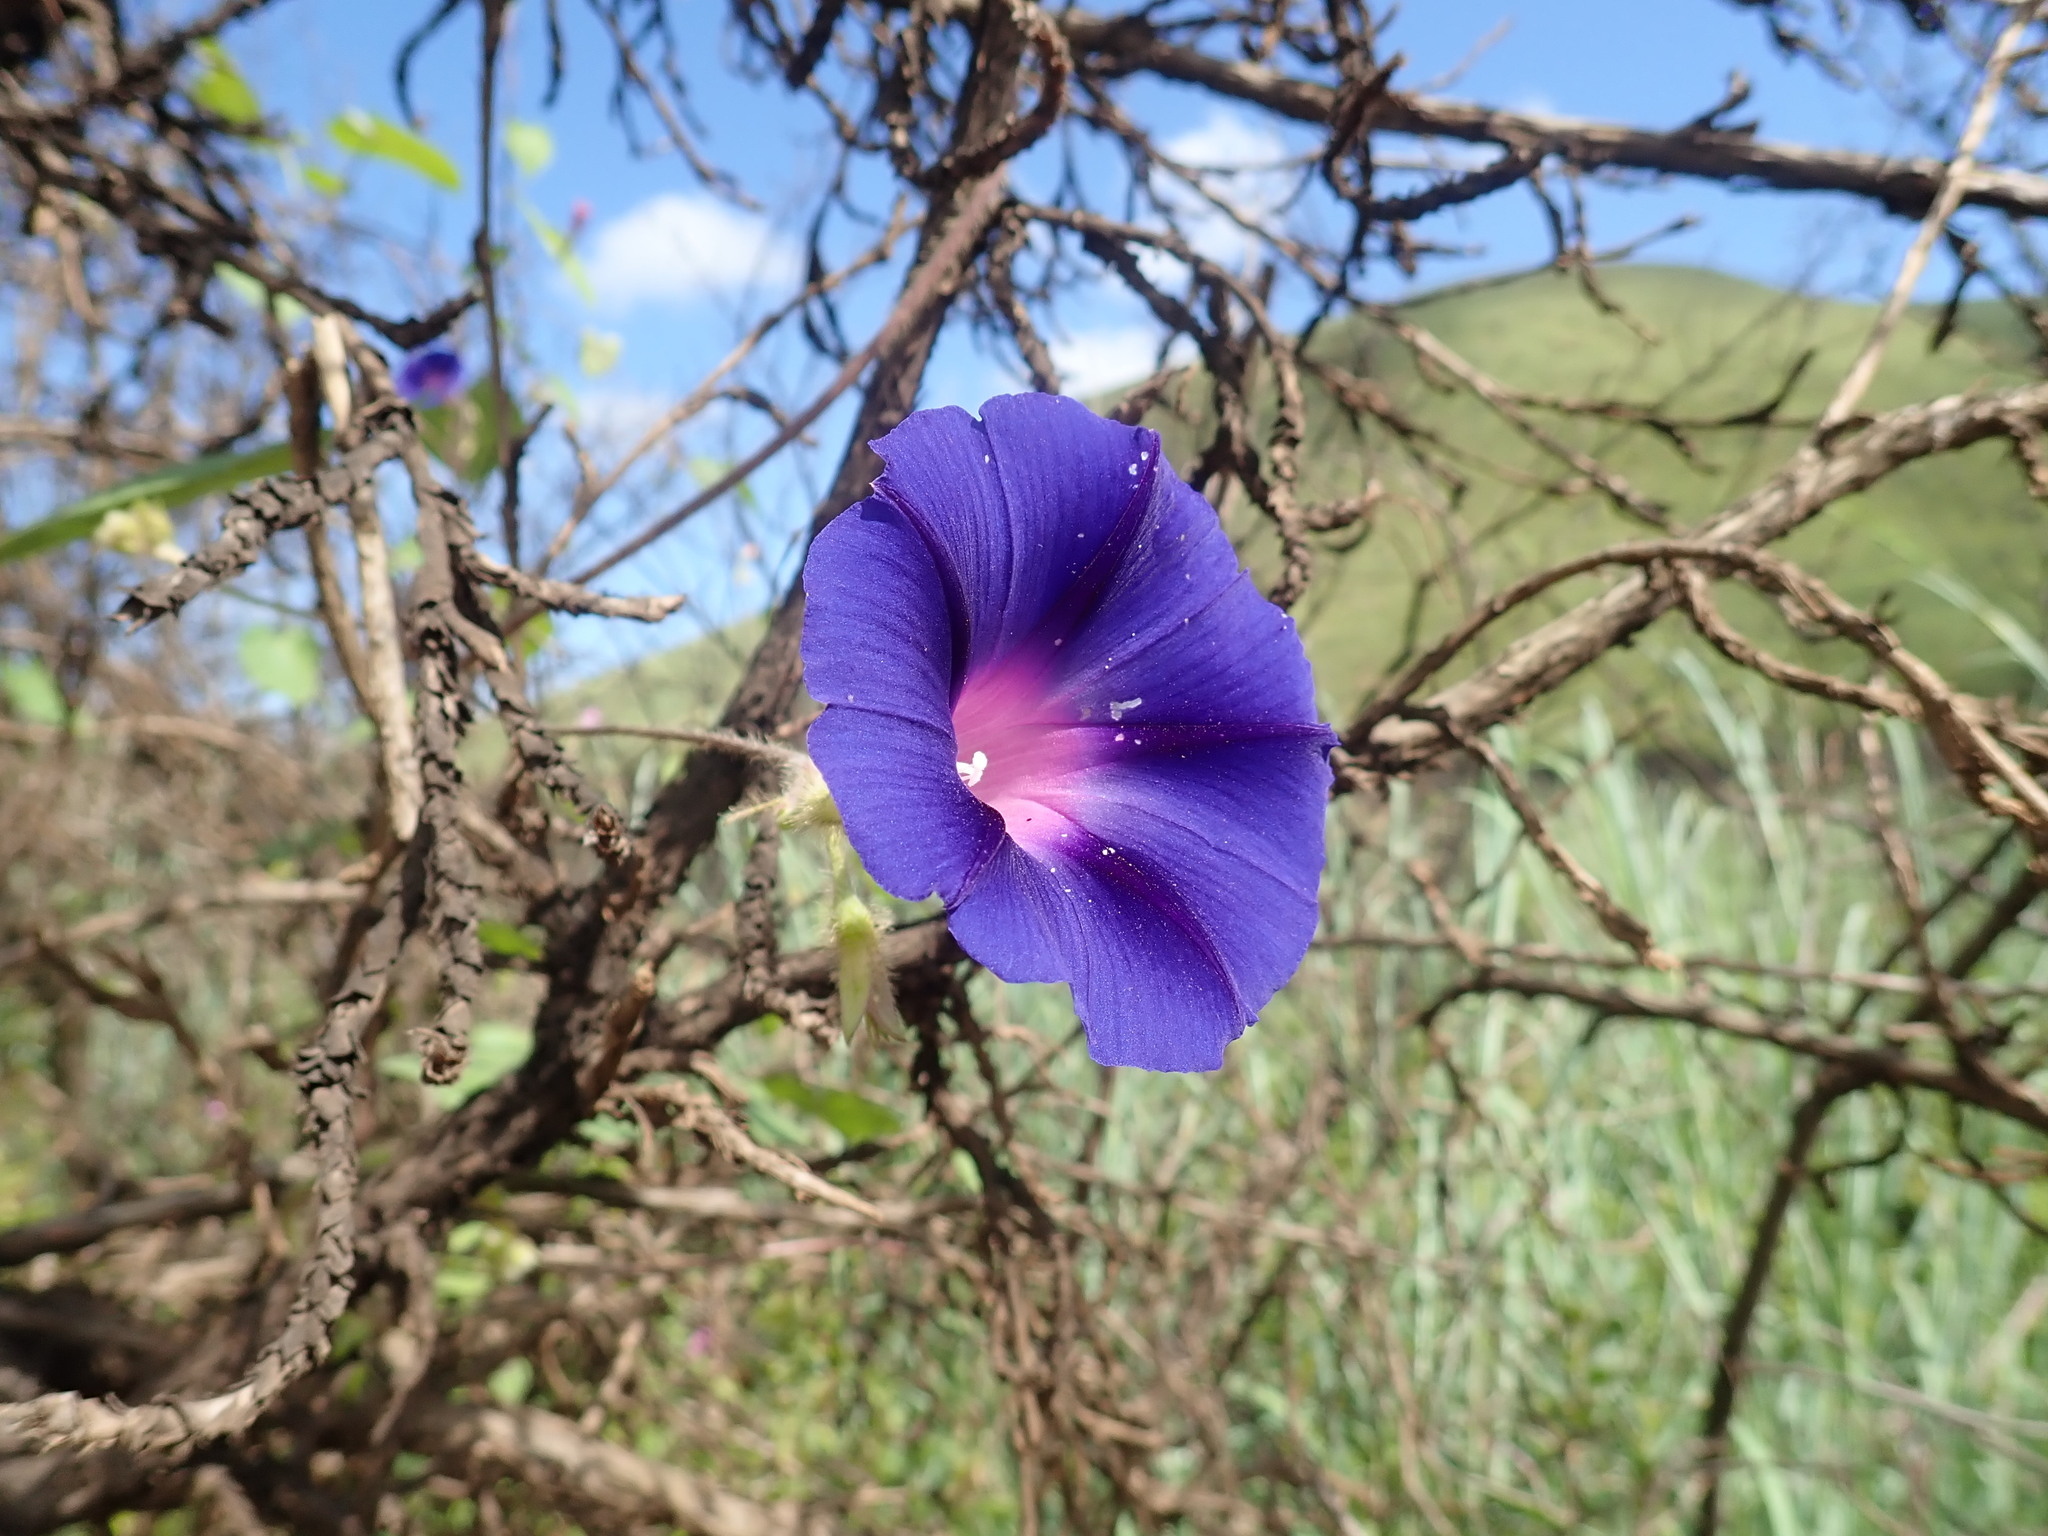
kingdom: Plantae
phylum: Tracheophyta
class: Magnoliopsida
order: Solanales
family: Convolvulaceae
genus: Ipomoea
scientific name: Ipomoea purpurea
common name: Common morning-glory
